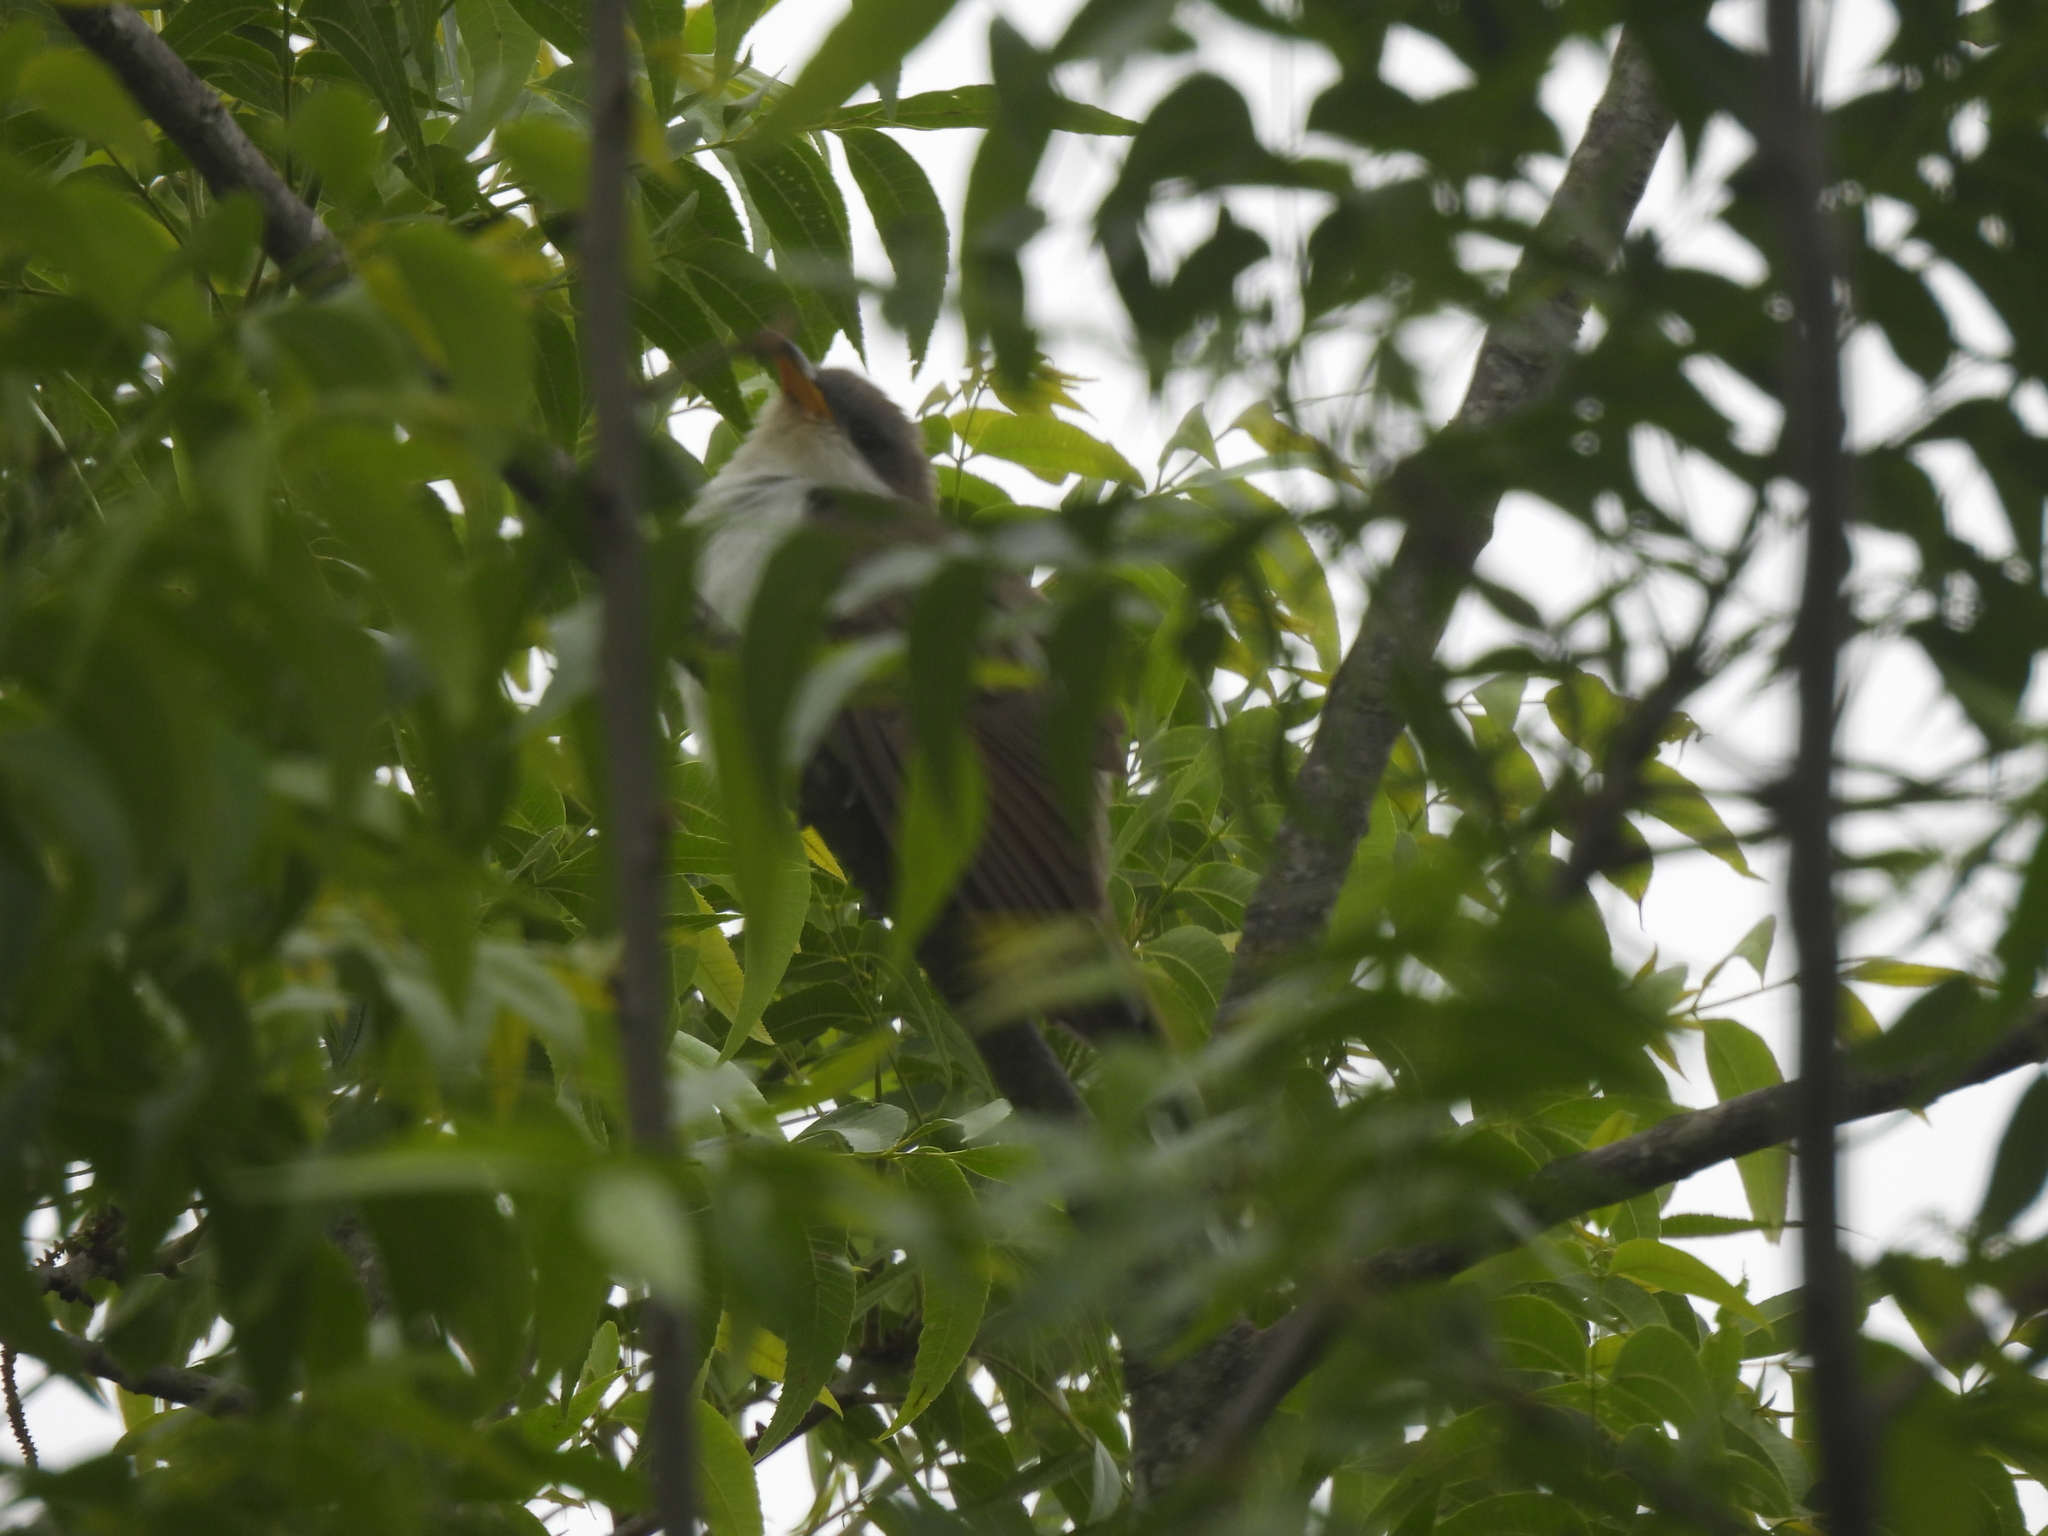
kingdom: Animalia
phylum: Chordata
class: Aves
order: Cuculiformes
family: Cuculidae
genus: Coccyzus
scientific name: Coccyzus americanus
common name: Yellow-billed cuckoo
